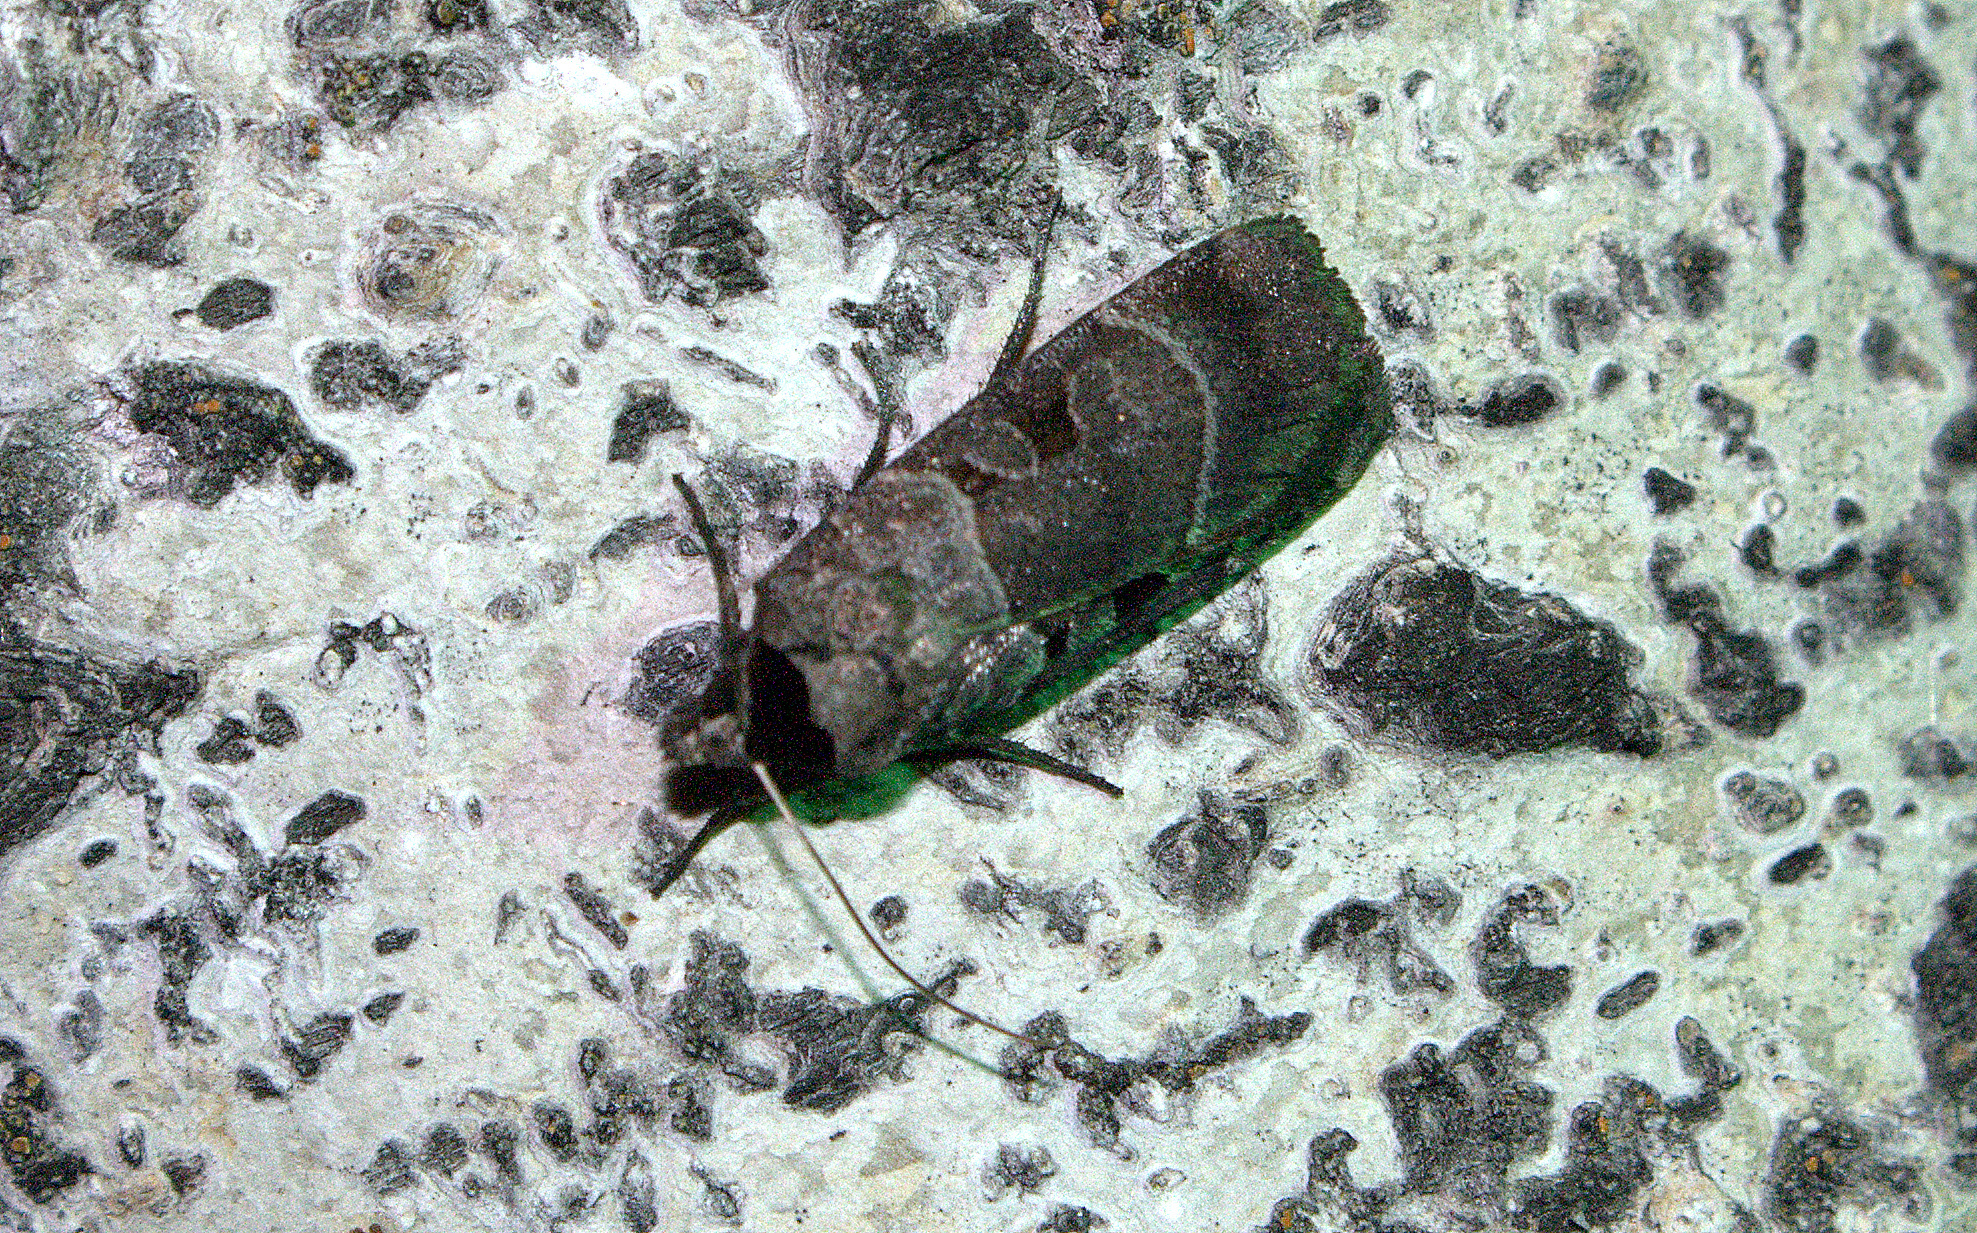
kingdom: Animalia
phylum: Arthropoda
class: Insecta
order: Lepidoptera
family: Noctuidae
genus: Agnorisma
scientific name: Agnorisma bugrai
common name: Collared dart
